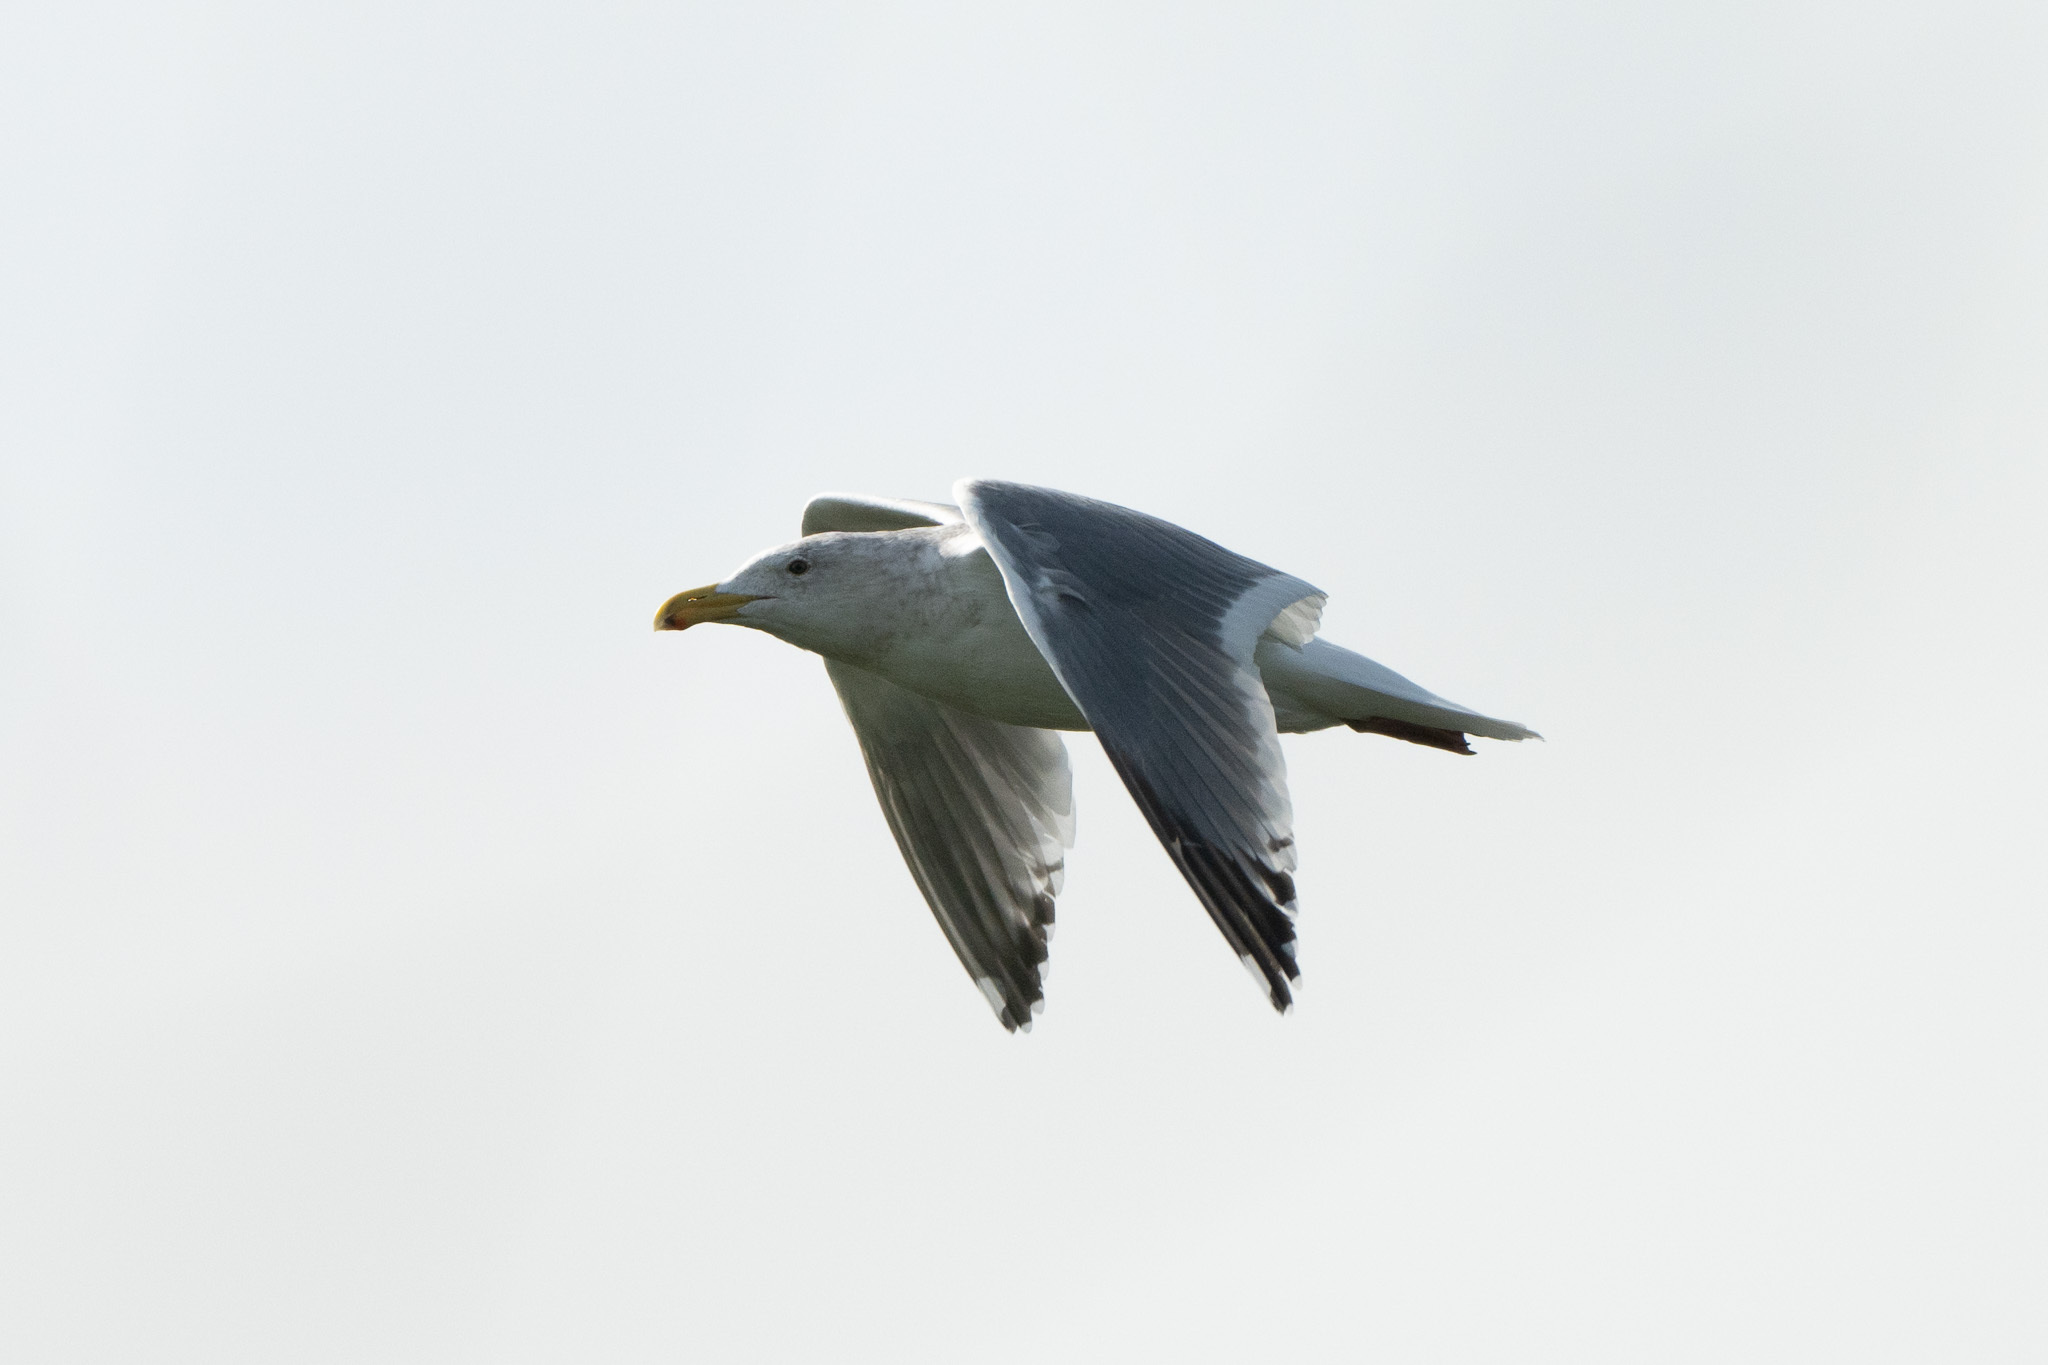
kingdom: Animalia
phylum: Chordata
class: Aves
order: Charadriiformes
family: Laridae
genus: Larus
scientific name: Larus
